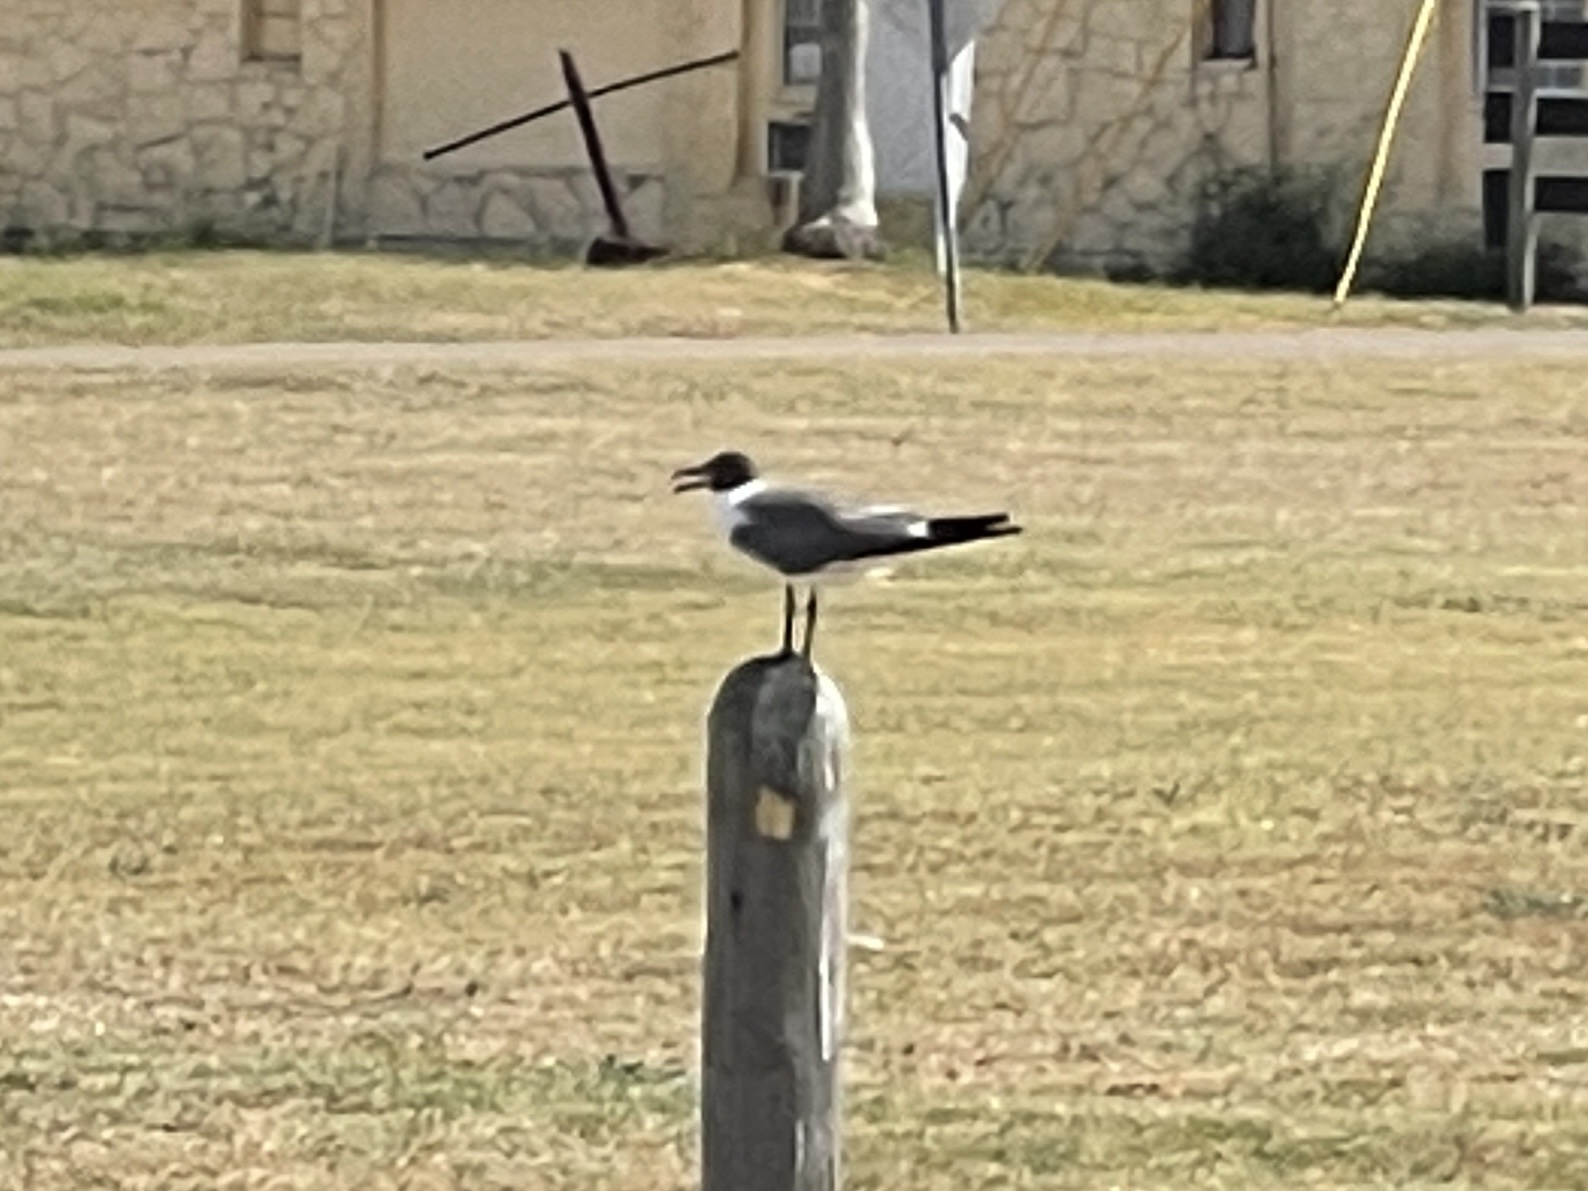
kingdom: Animalia
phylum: Chordata
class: Aves
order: Charadriiformes
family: Laridae
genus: Leucophaeus
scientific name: Leucophaeus atricilla
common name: Laughing gull
